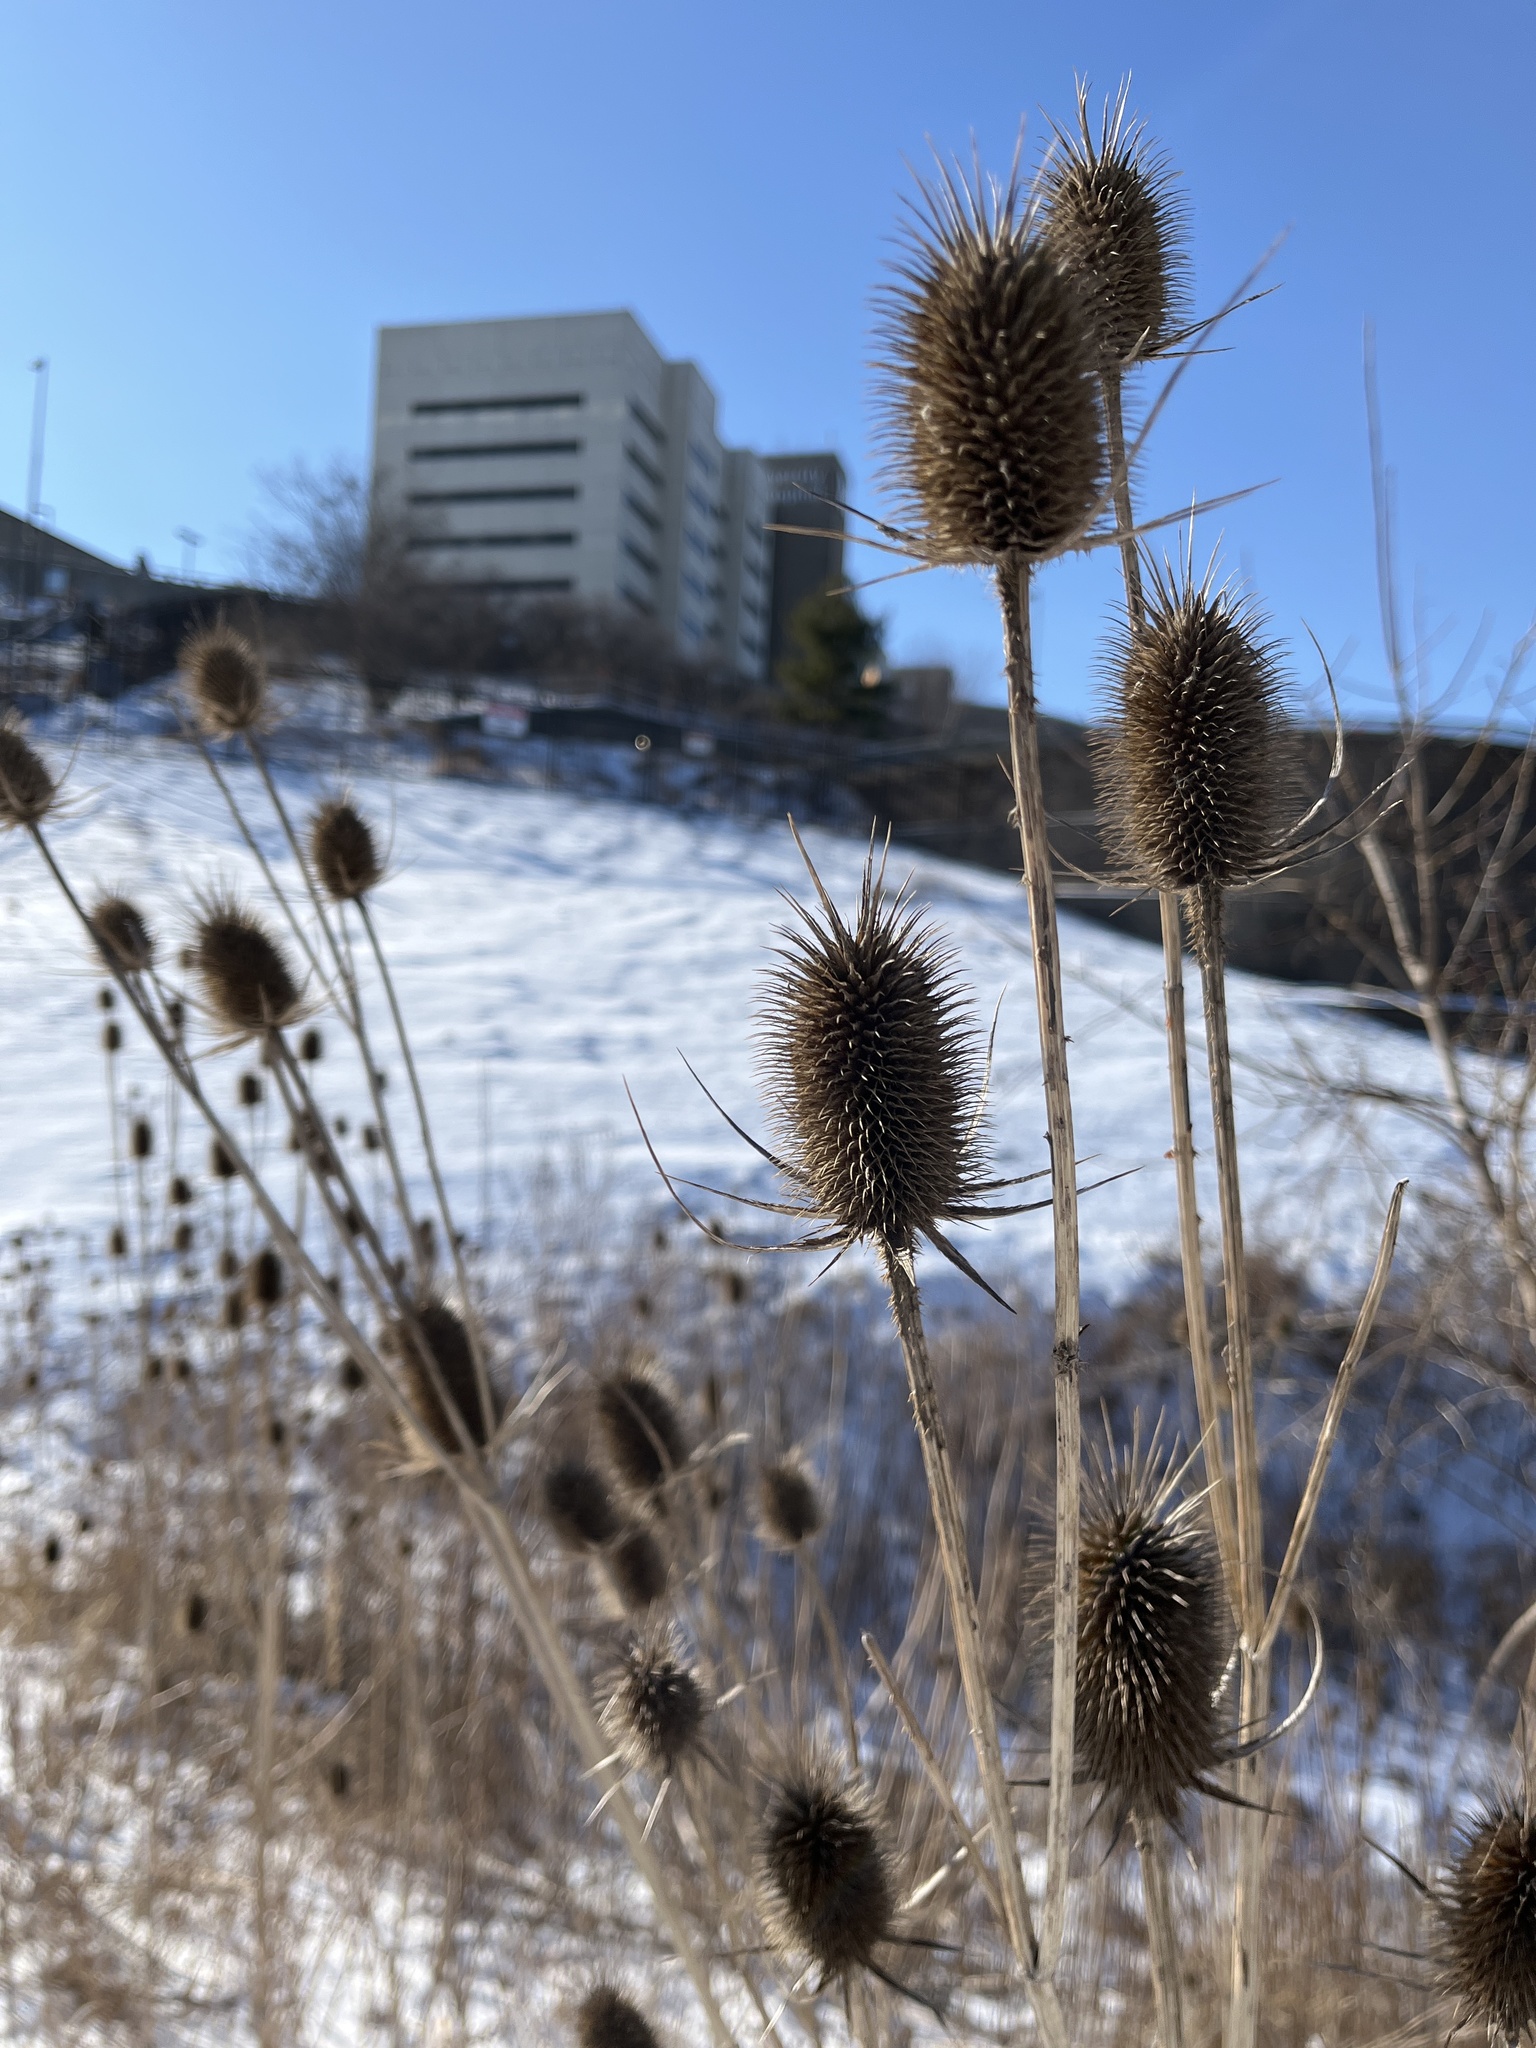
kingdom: Plantae
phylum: Tracheophyta
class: Magnoliopsida
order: Dipsacales
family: Caprifoliaceae
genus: Dipsacus
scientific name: Dipsacus laciniatus
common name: Cut-leaved teasel
